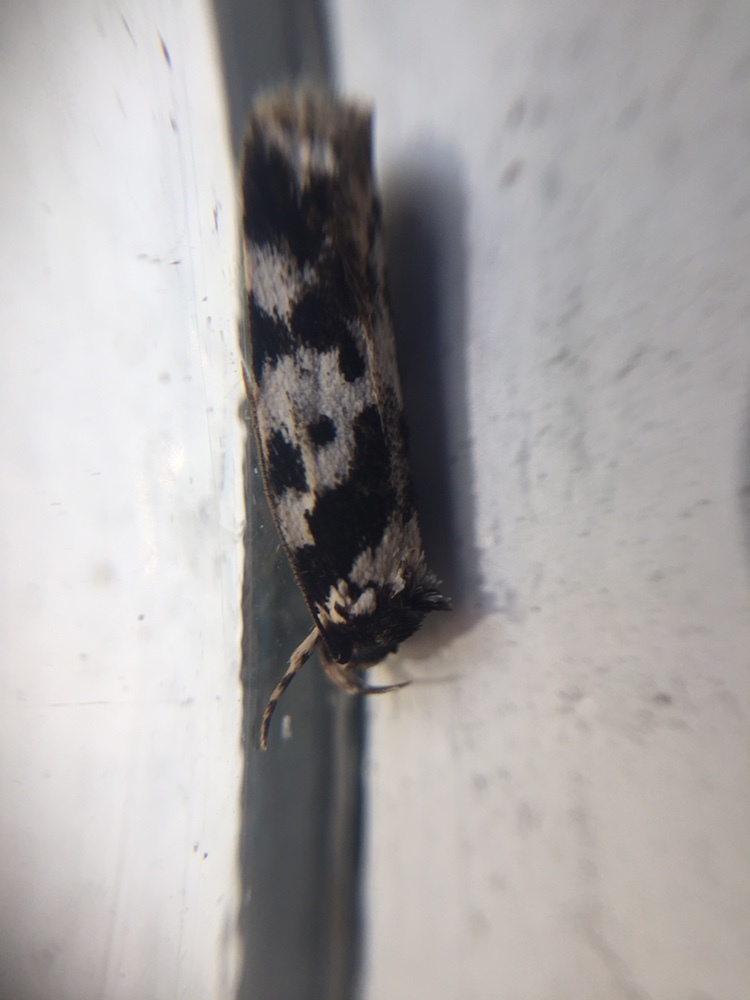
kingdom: Animalia
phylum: Arthropoda
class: Insecta
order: Lepidoptera
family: Oecophoridae
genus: Barea
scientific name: Barea confusella
